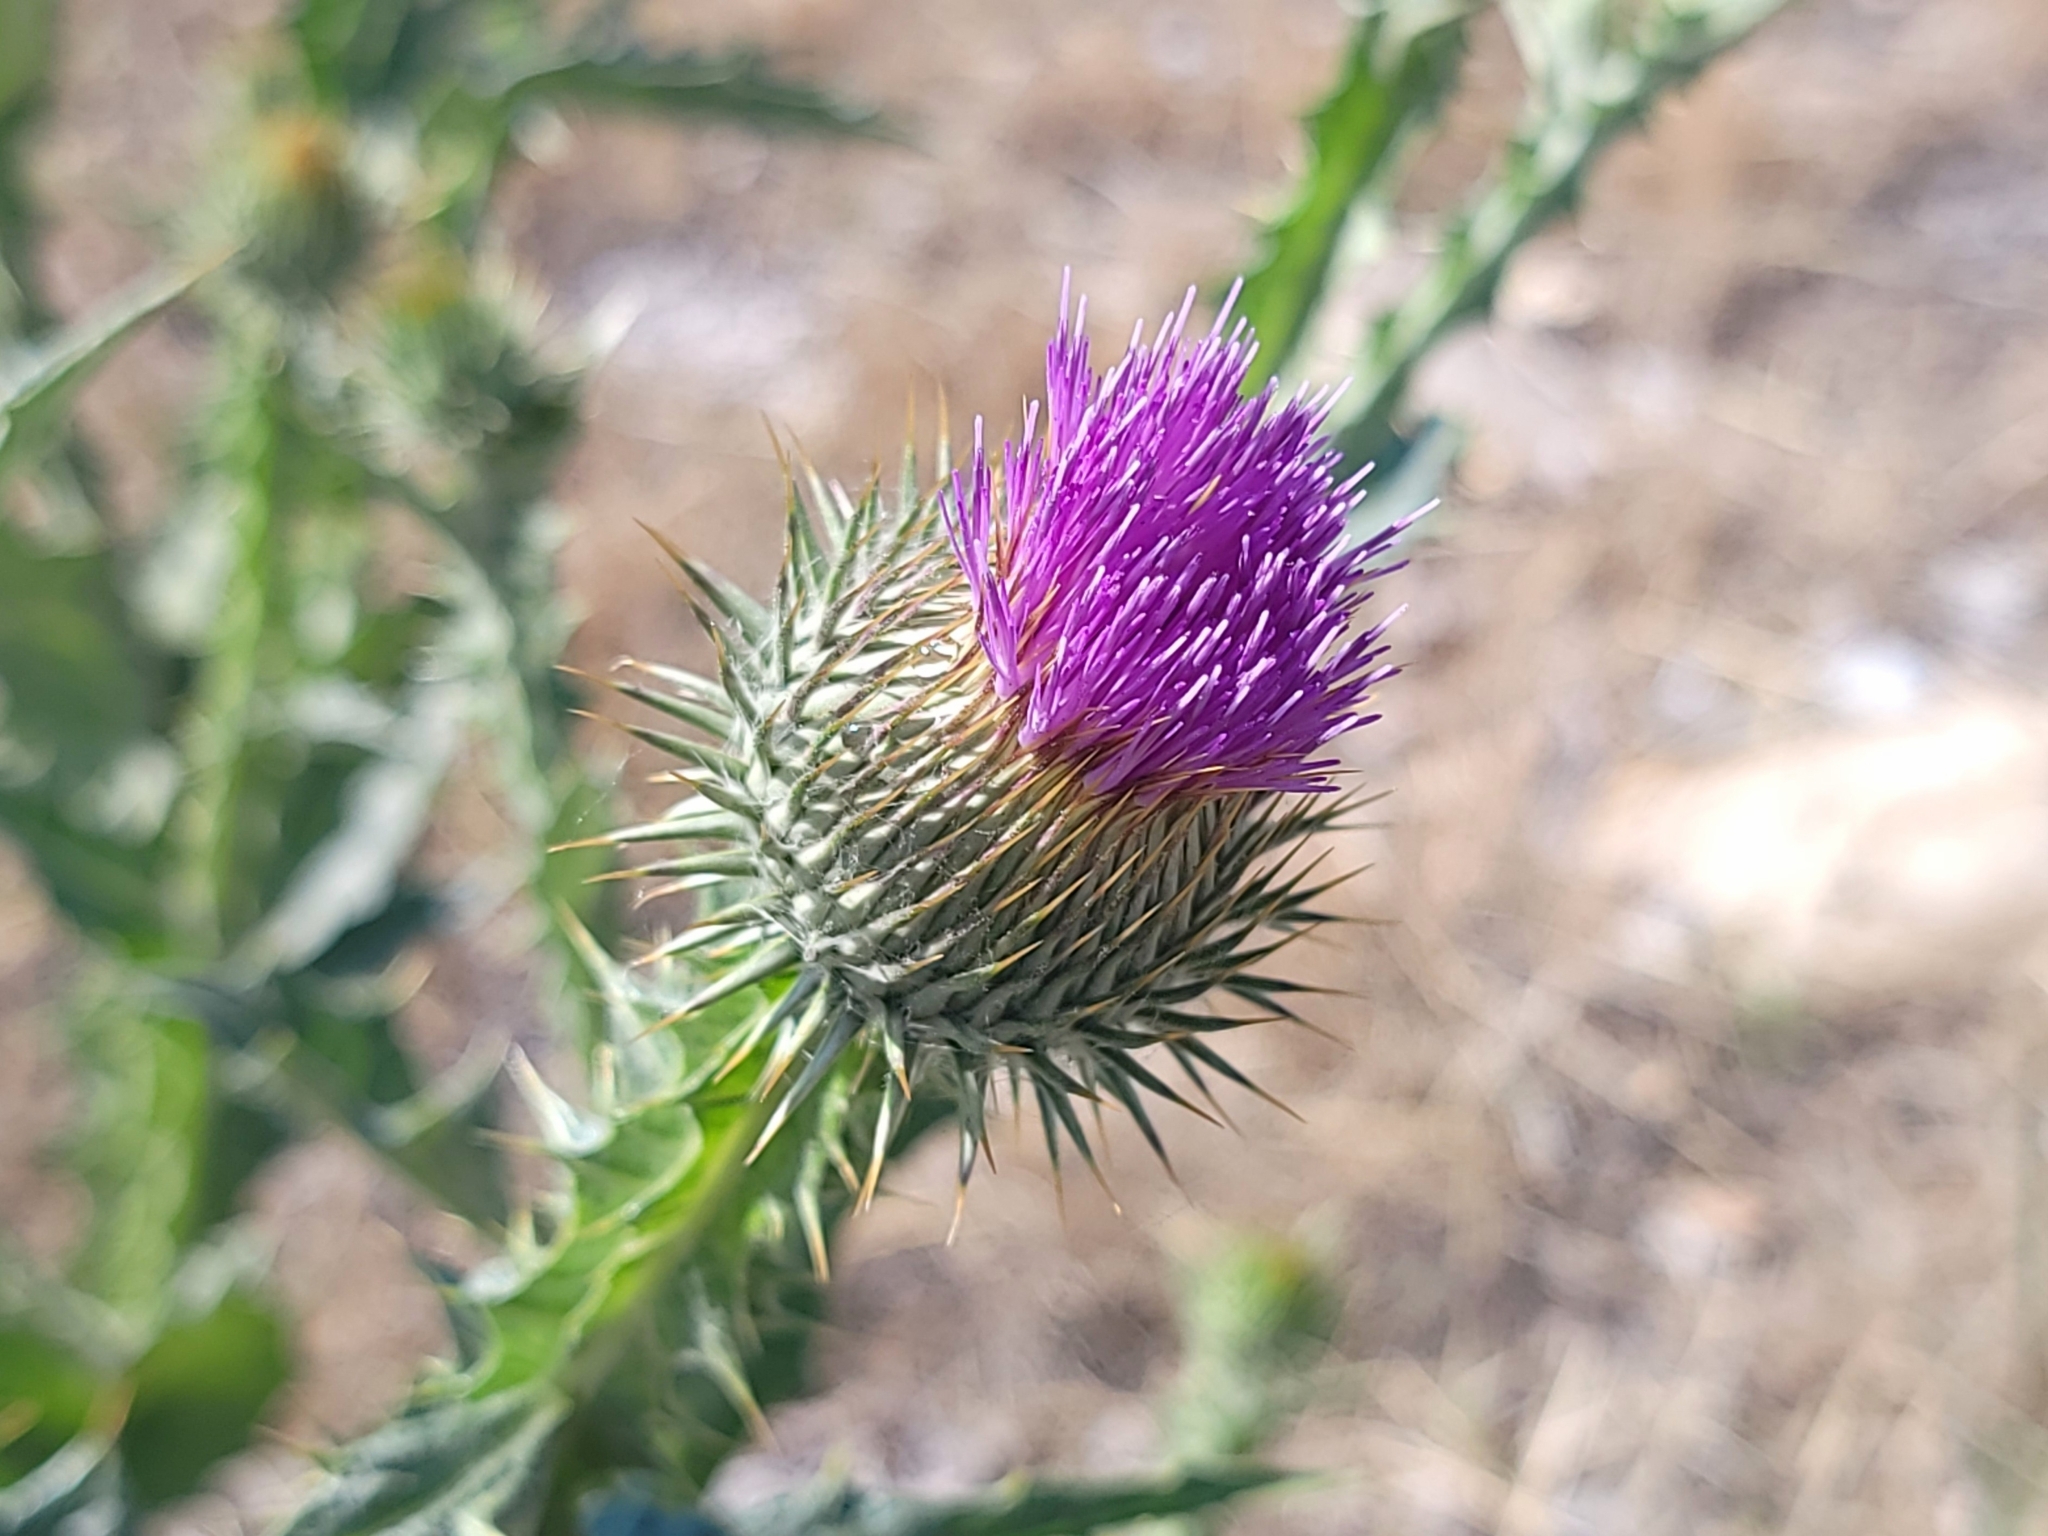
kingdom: Plantae
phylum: Tracheophyta
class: Magnoliopsida
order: Asterales
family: Asteraceae
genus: Onopordum
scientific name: Onopordum acanthium
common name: Scotch thistle
